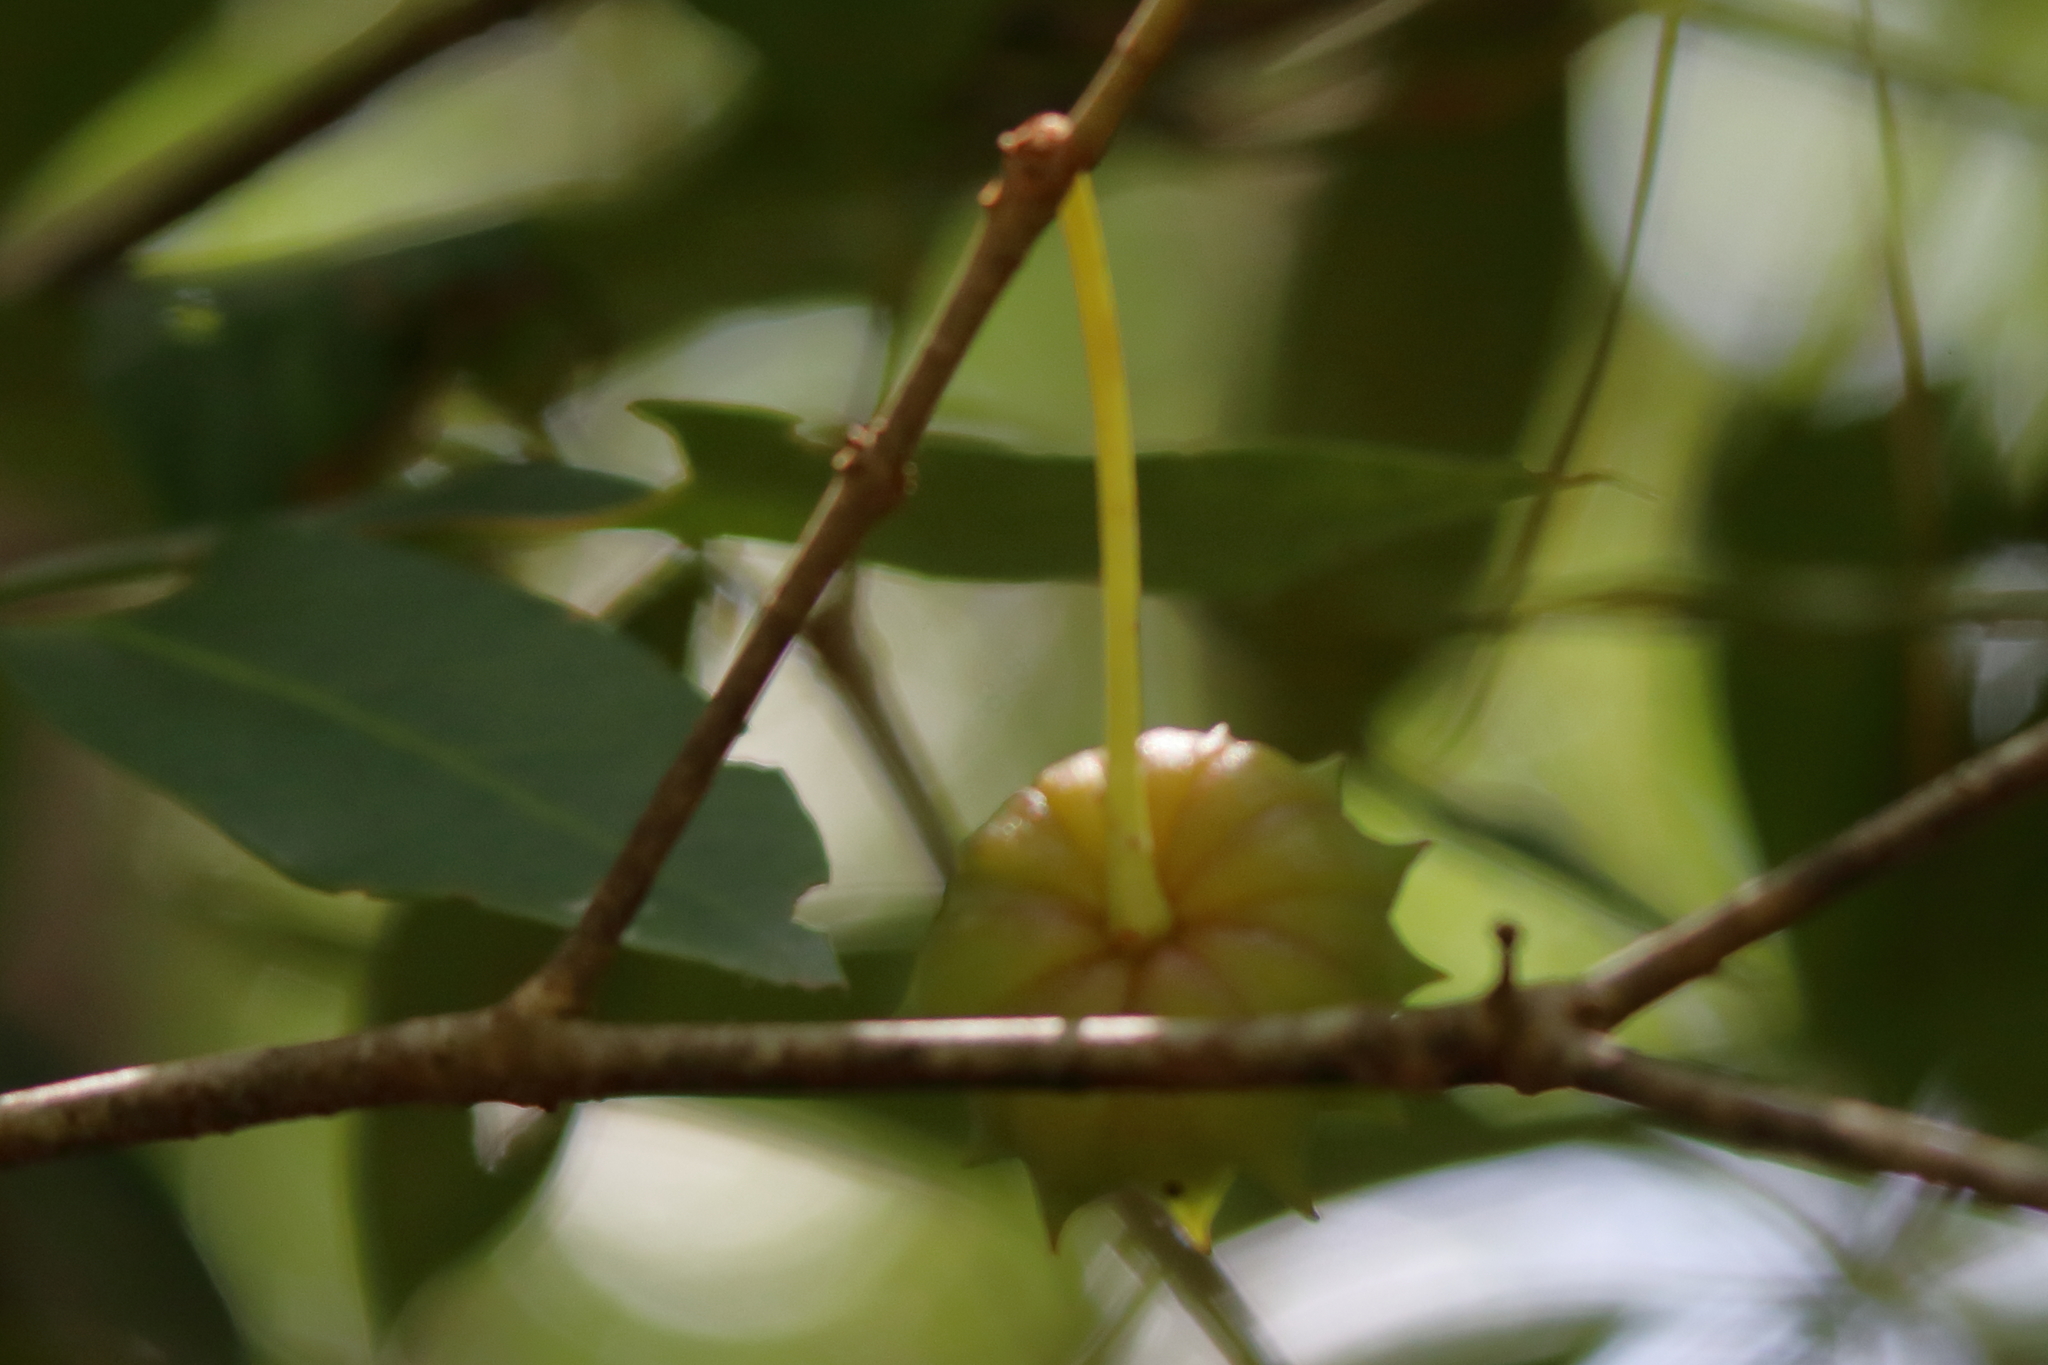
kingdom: Plantae
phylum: Tracheophyta
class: Magnoliopsida
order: Austrobaileyales
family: Schisandraceae
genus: Illicium
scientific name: Illicium floridanum
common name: Florida anisetree
